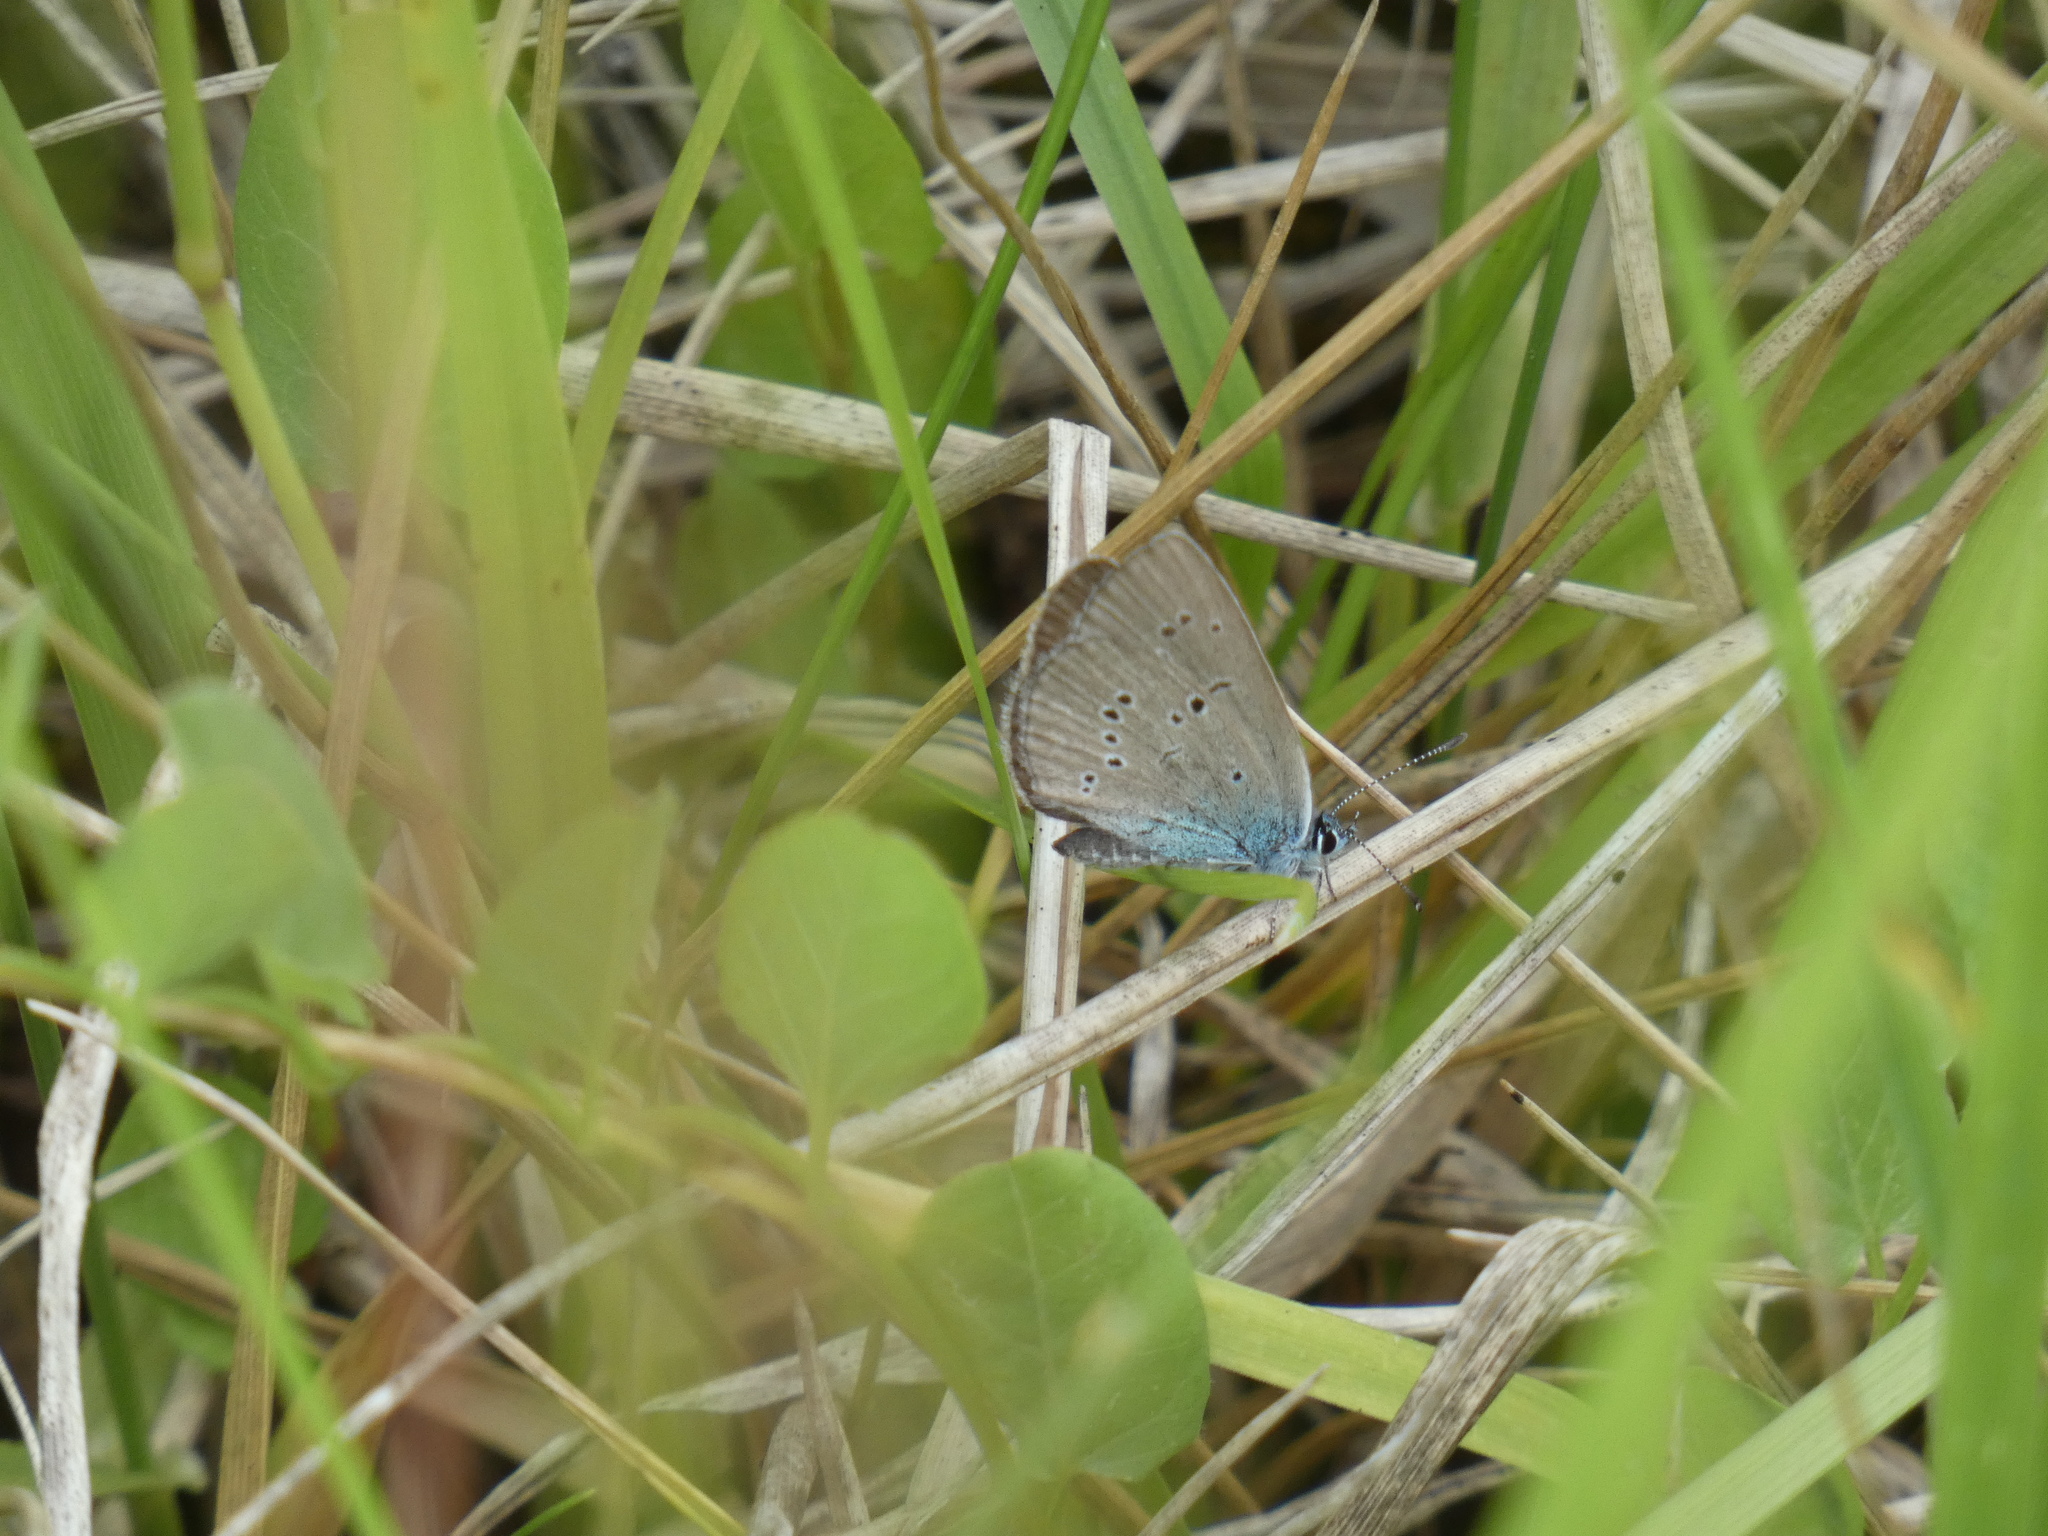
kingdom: Animalia
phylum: Arthropoda
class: Insecta
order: Lepidoptera
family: Lycaenidae
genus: Cyaniris
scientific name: Cyaniris semiargus
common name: Mazarine blue
